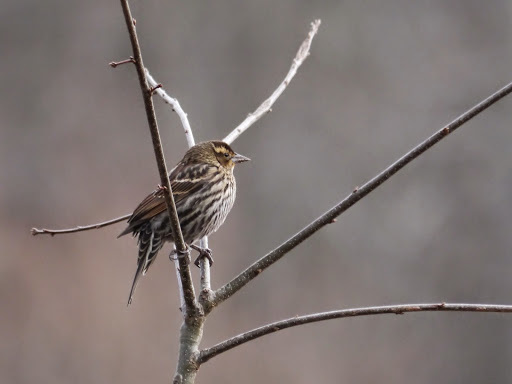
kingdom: Animalia
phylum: Chordata
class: Aves
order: Passeriformes
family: Icteridae
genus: Agelaius
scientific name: Agelaius phoeniceus
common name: Red-winged blackbird
